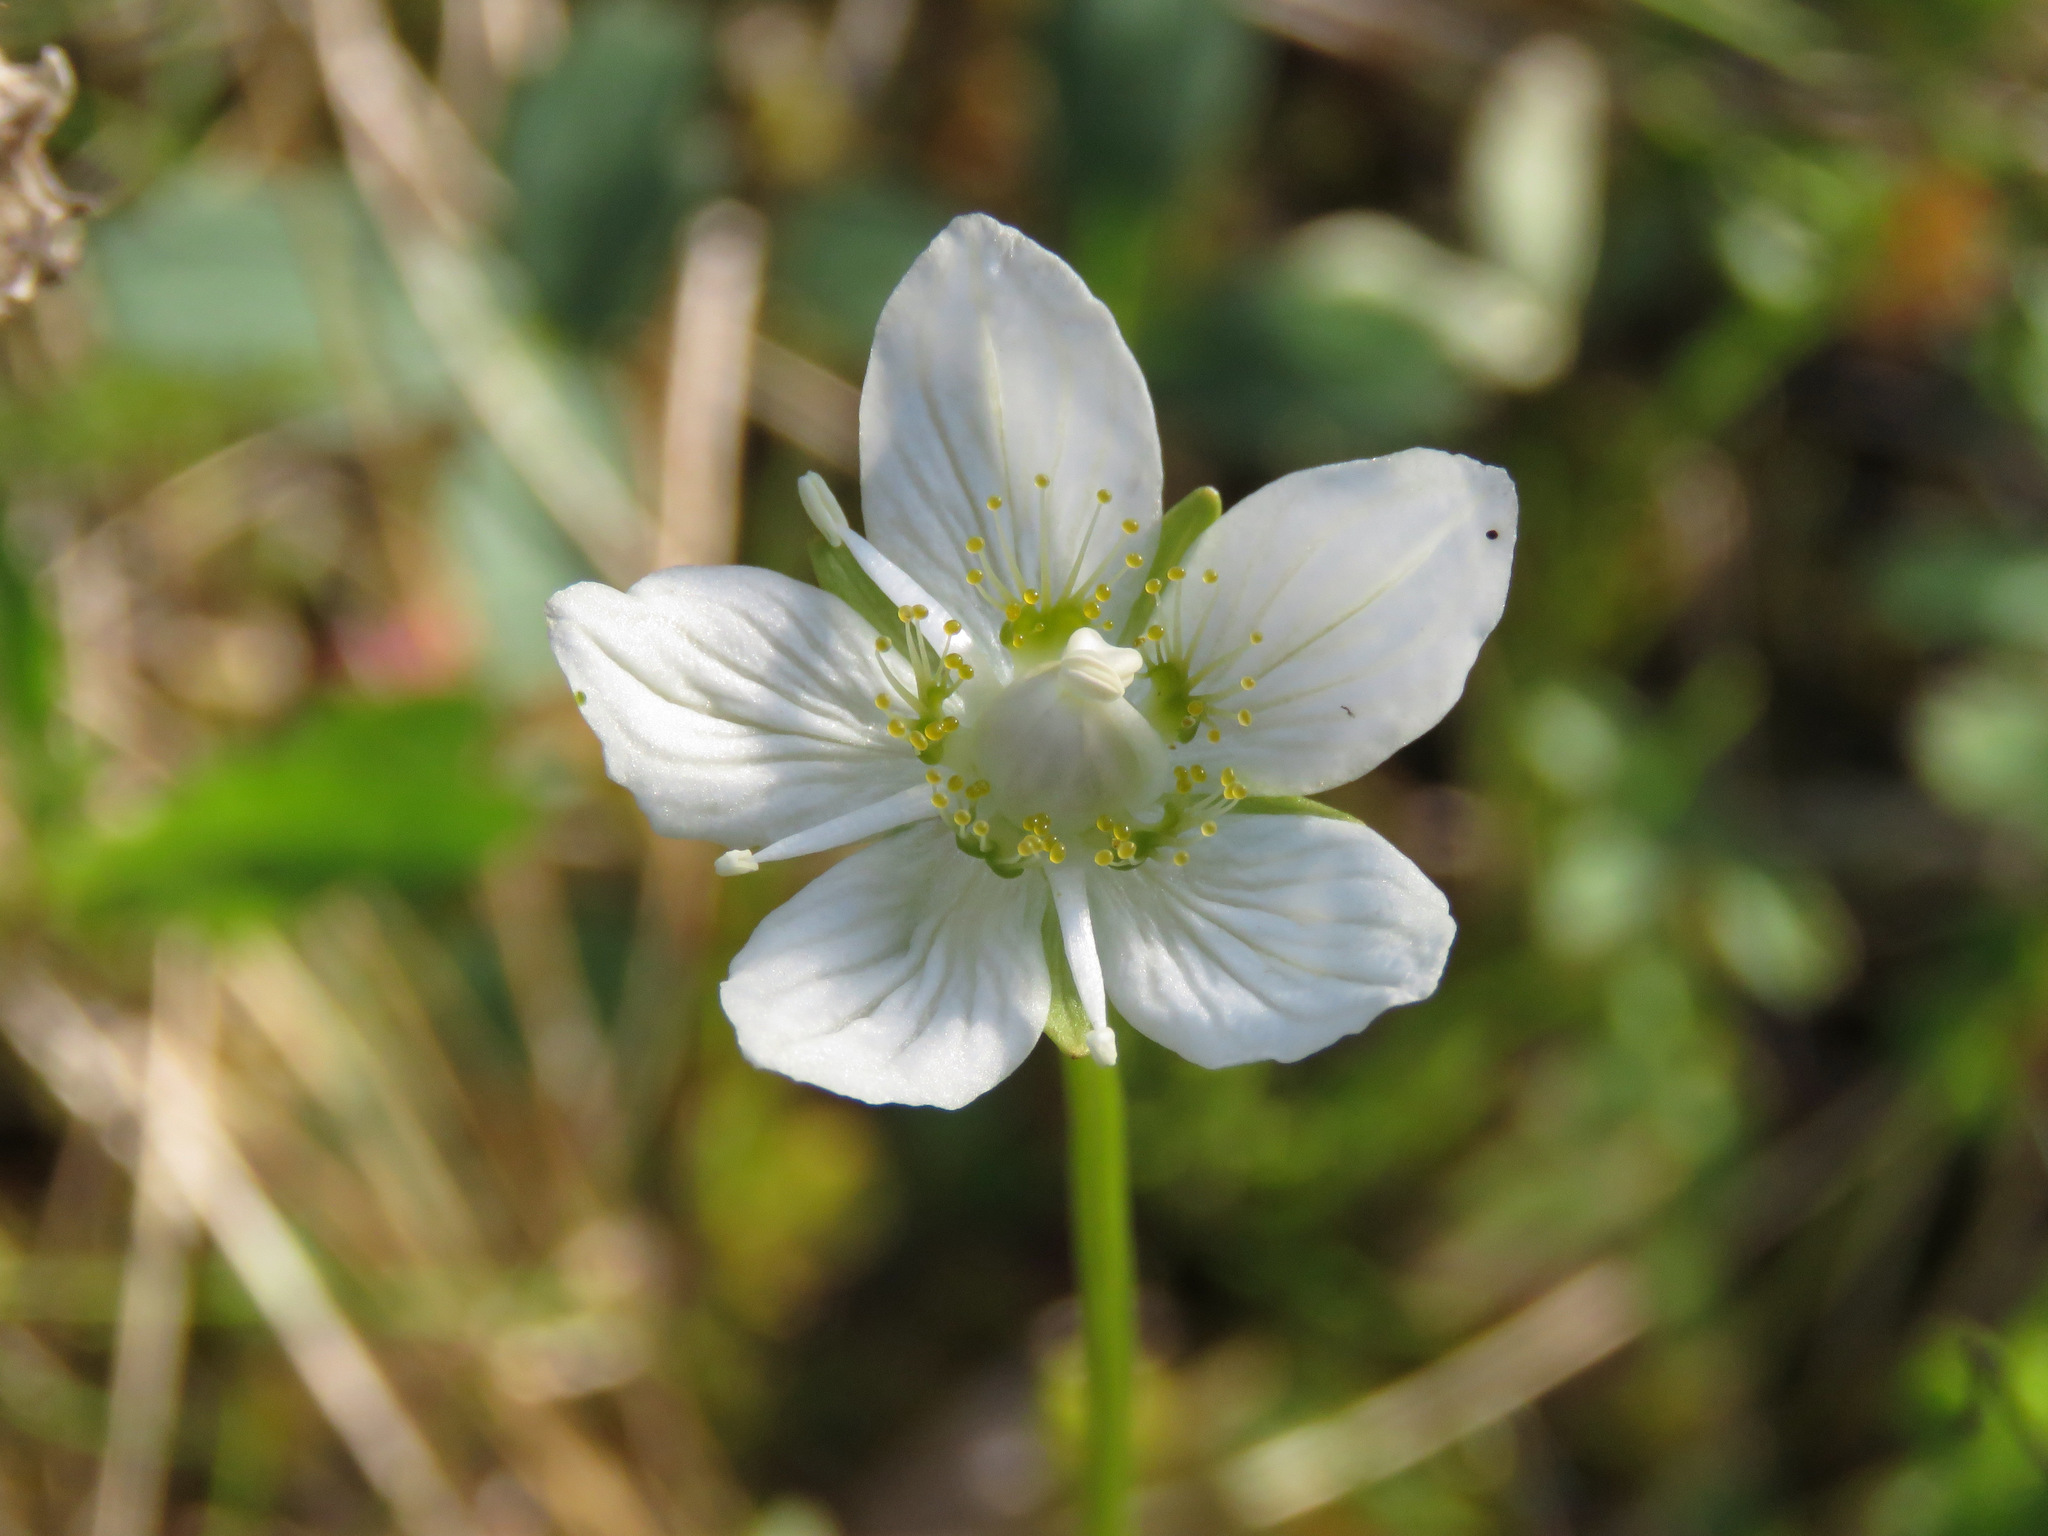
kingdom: Plantae
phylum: Tracheophyta
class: Magnoliopsida
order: Celastrales
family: Parnassiaceae
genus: Parnassia
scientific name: Parnassia palustris
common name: Grass-of-parnassus
